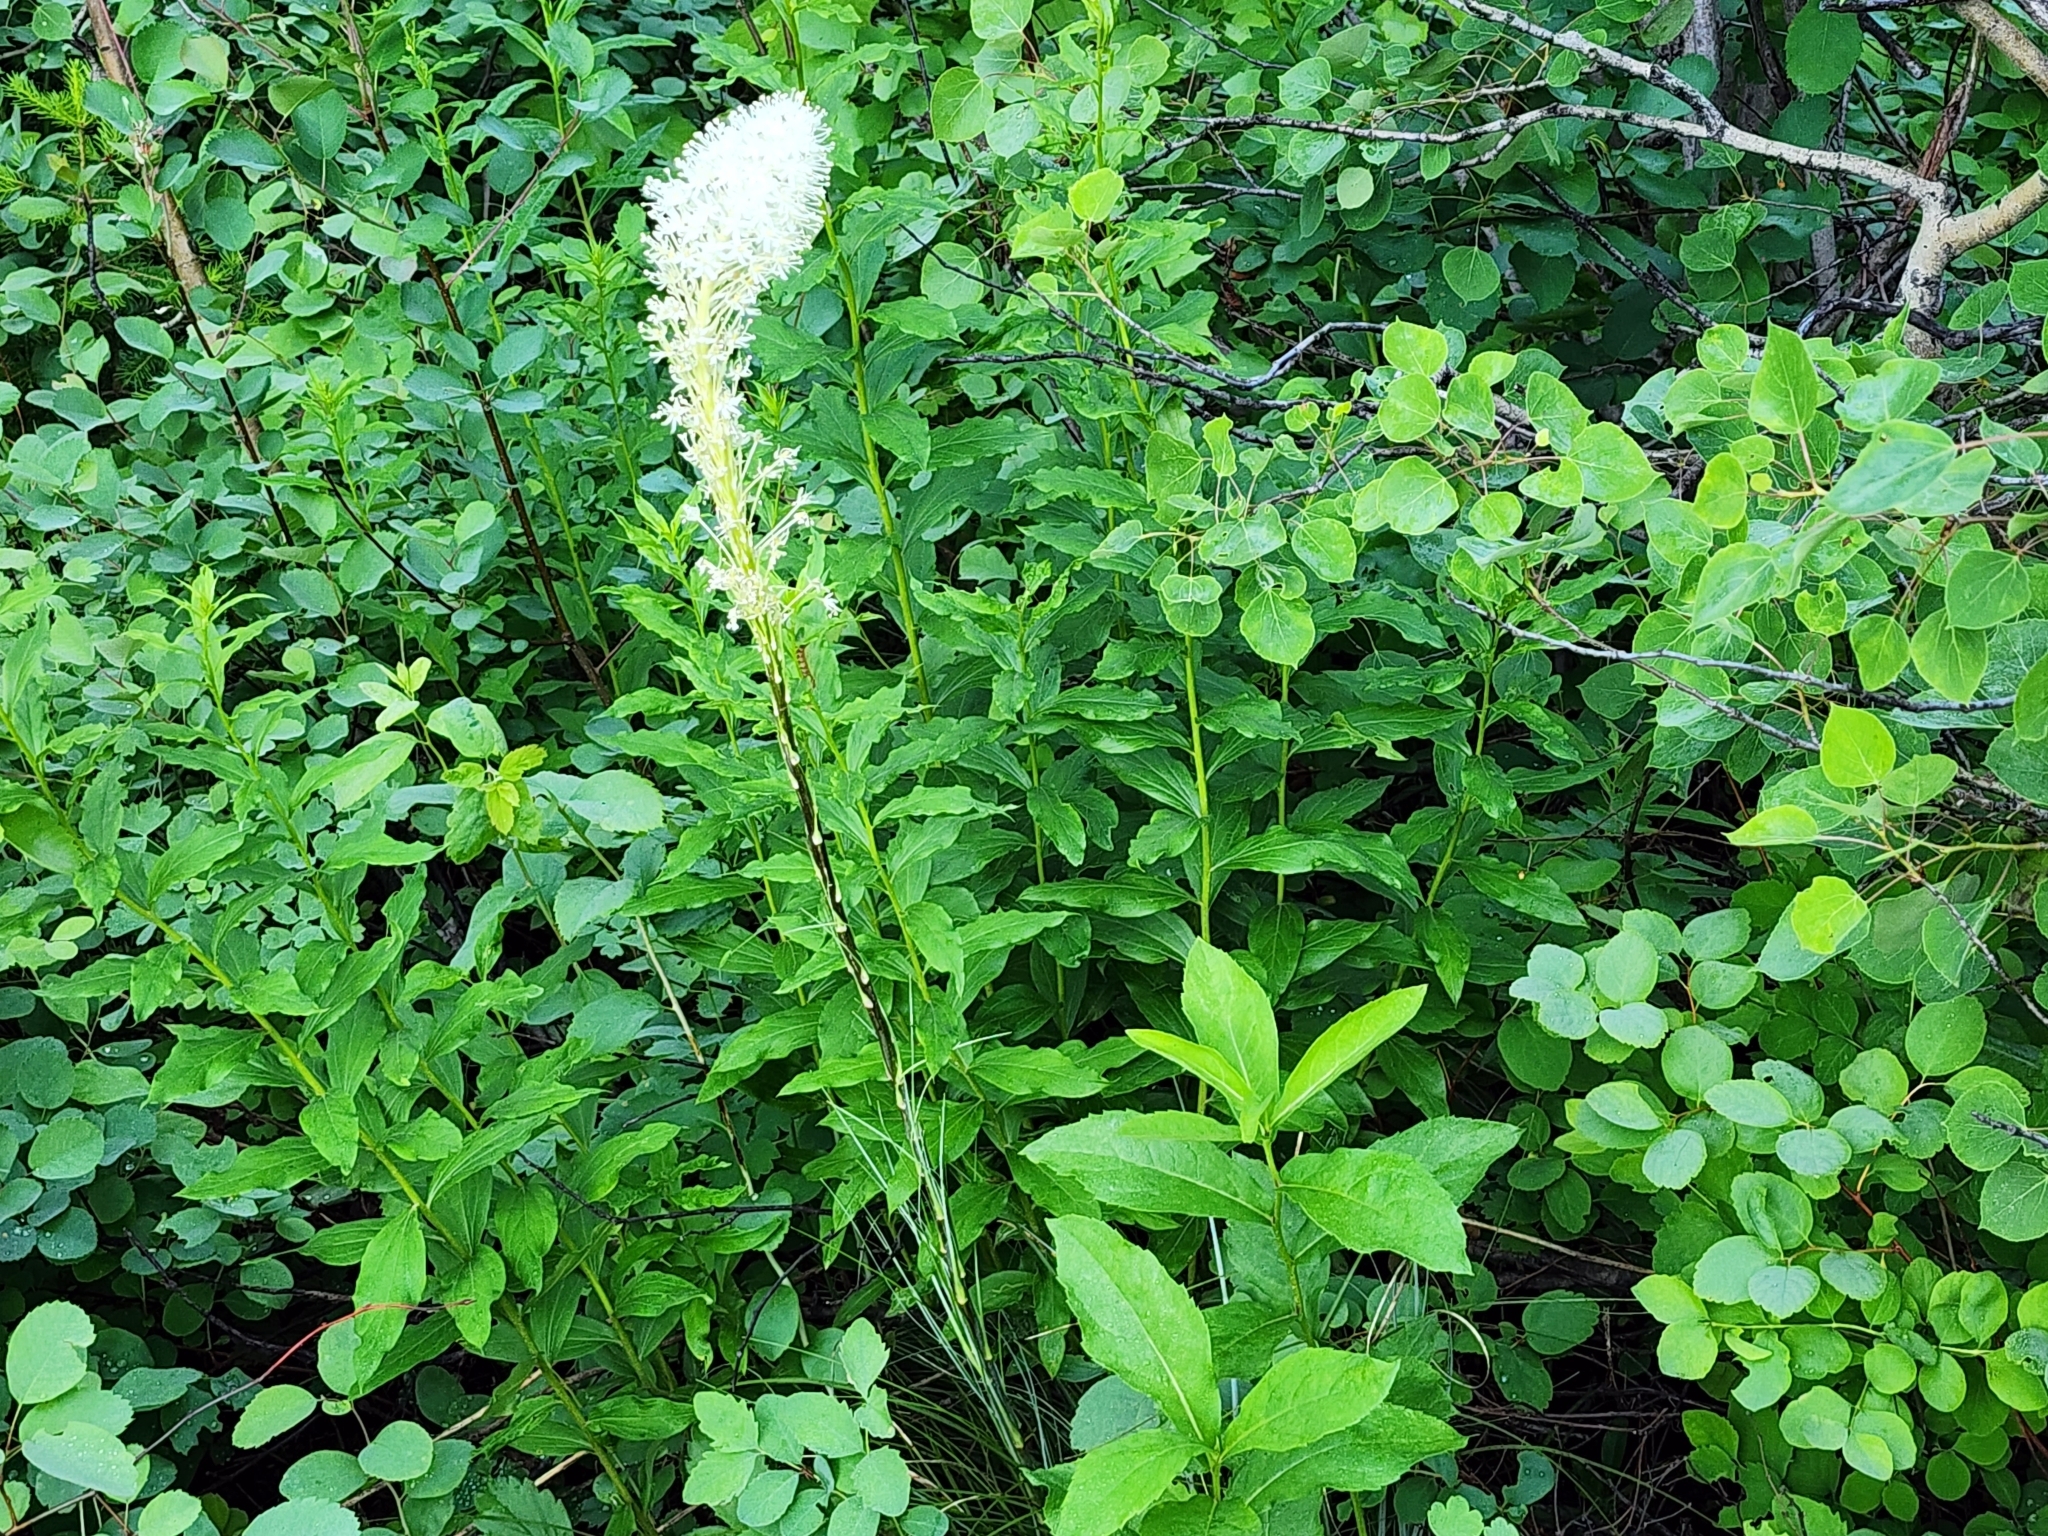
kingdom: Plantae
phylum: Tracheophyta
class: Liliopsida
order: Liliales
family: Melanthiaceae
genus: Xerophyllum
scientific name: Xerophyllum tenax
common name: Bear-grass
